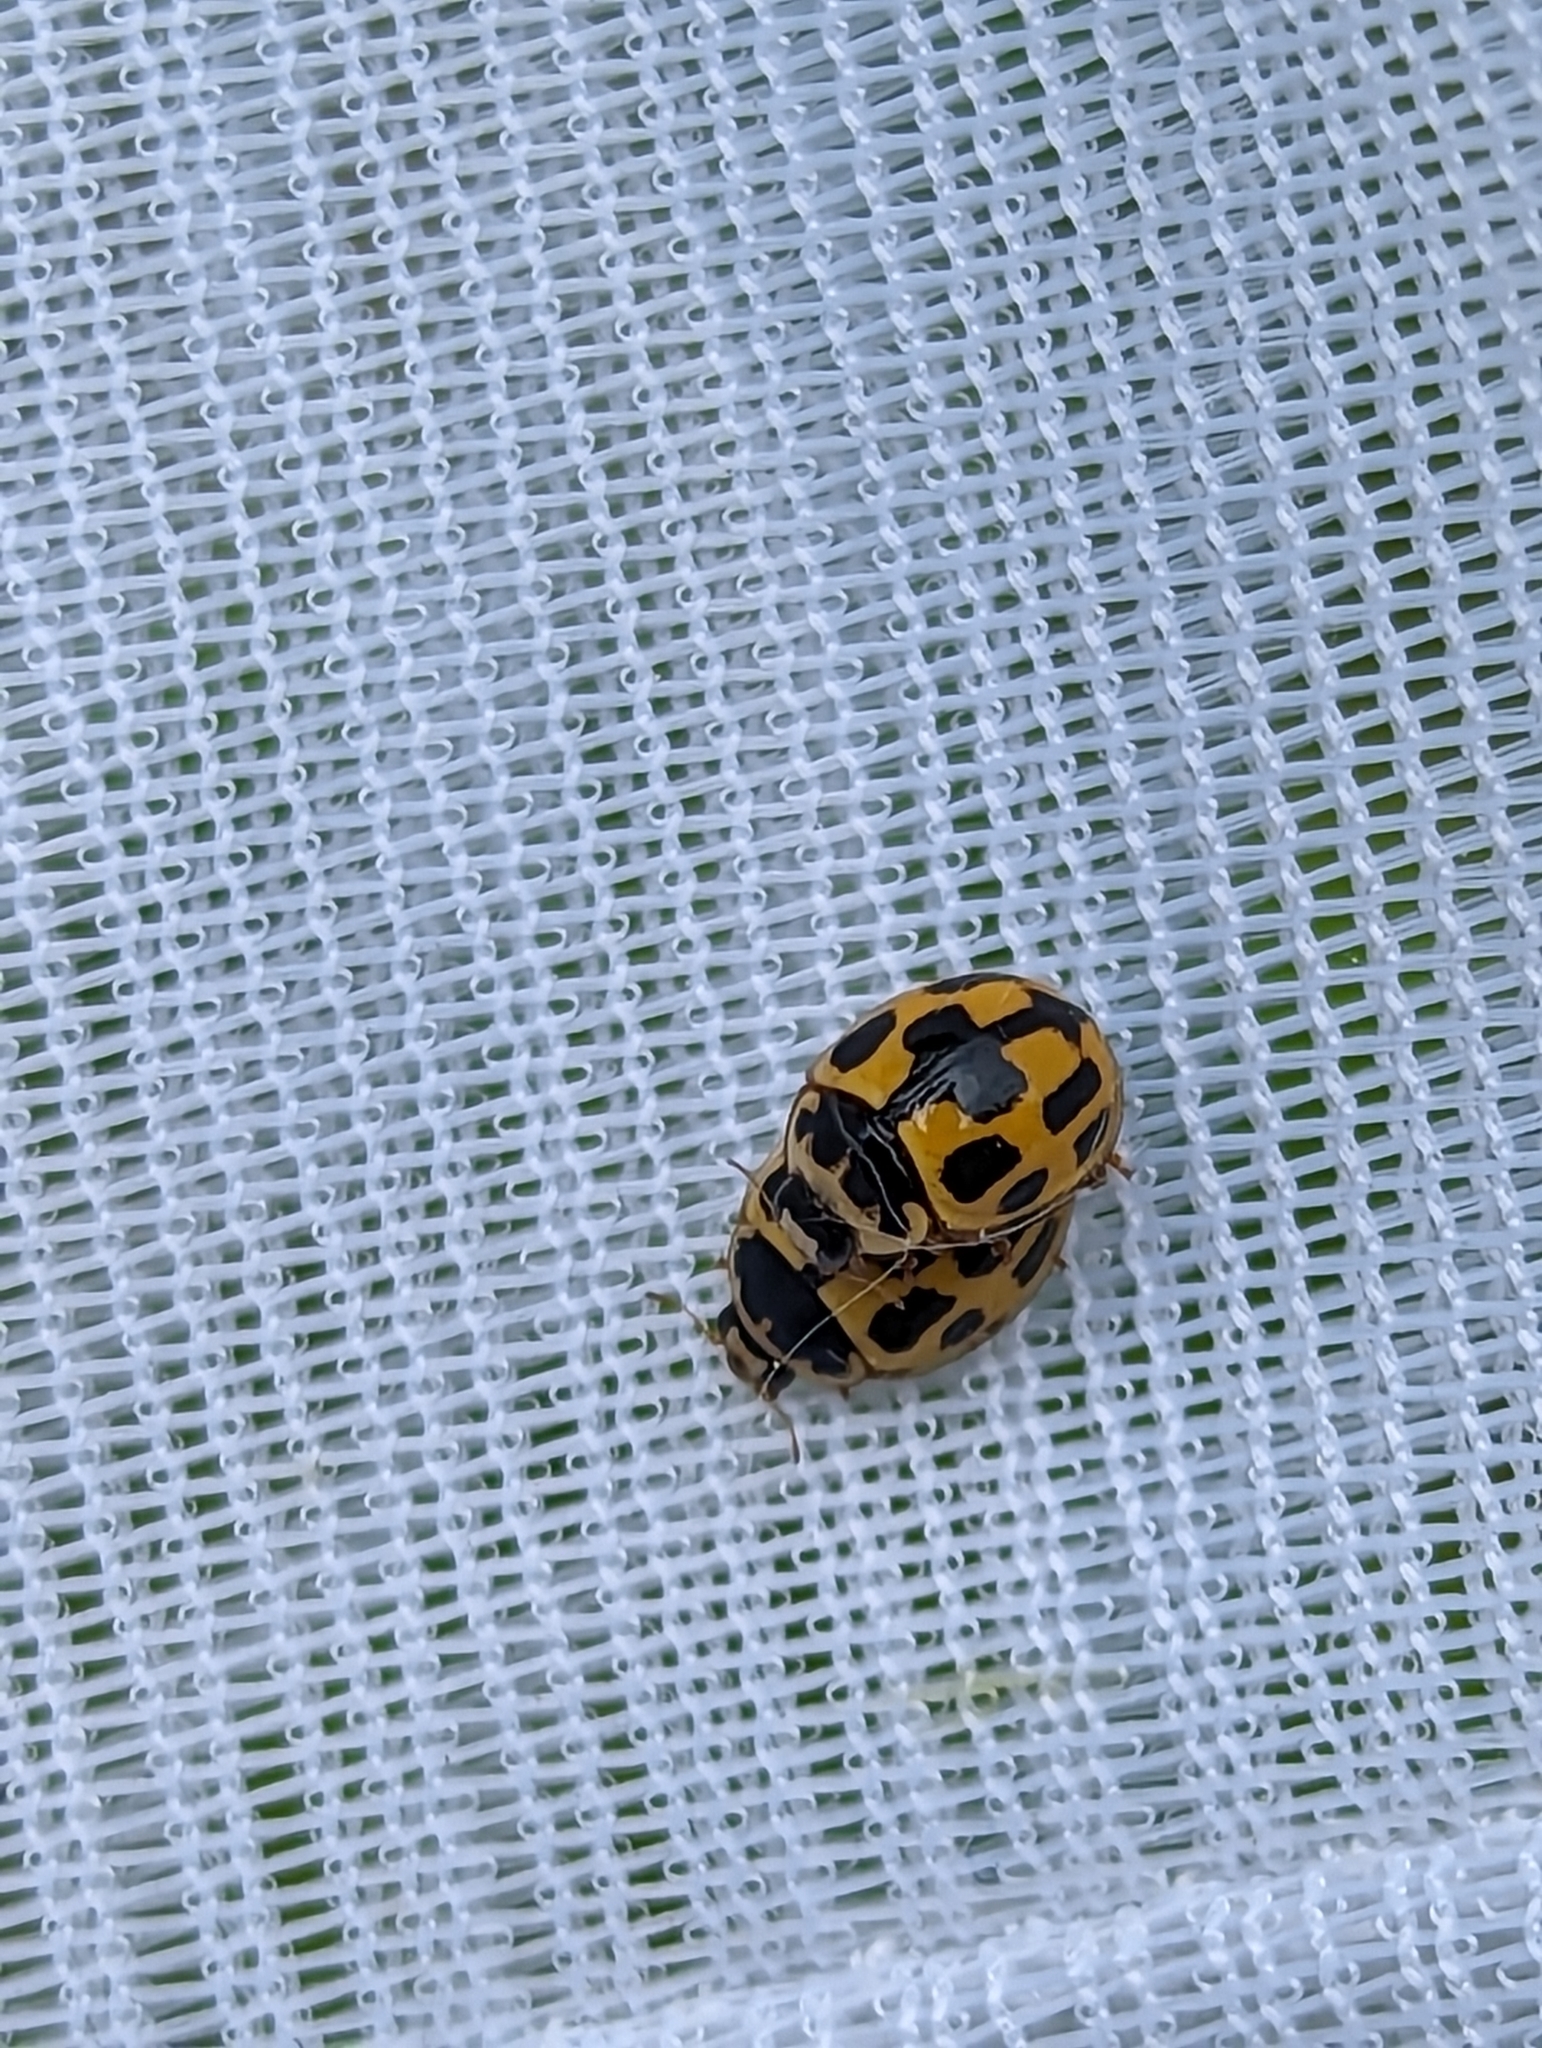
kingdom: Animalia
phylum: Arthropoda
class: Insecta
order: Coleoptera
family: Coccinellidae
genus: Propylaea
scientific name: Propylaea quatuordecimpunctata
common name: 14-spotted ladybird beetle
